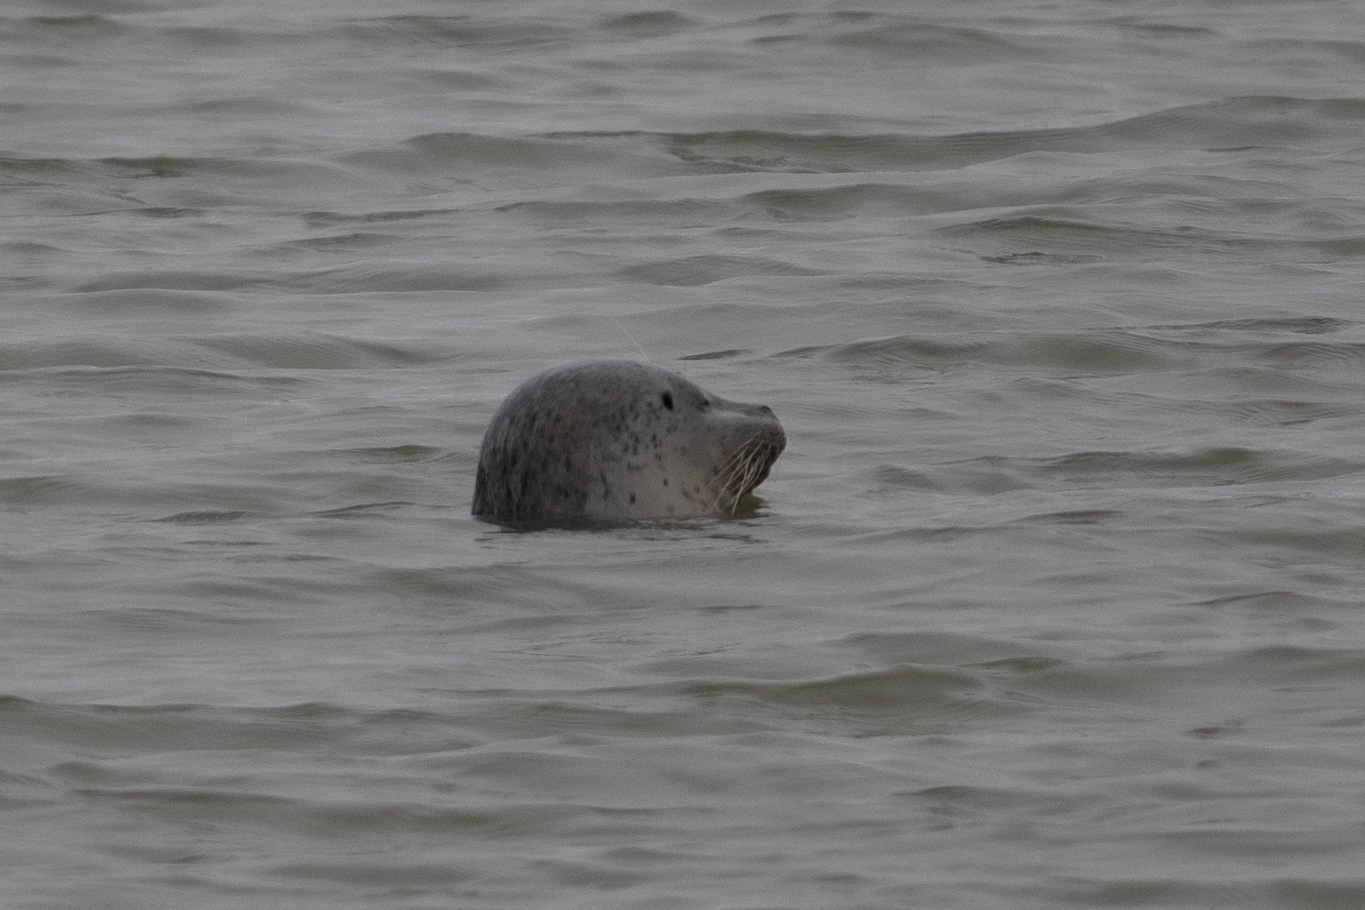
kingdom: Animalia
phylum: Chordata
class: Mammalia
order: Carnivora
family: Phocidae
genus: Phoca
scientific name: Phoca vitulina
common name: Harbor seal
